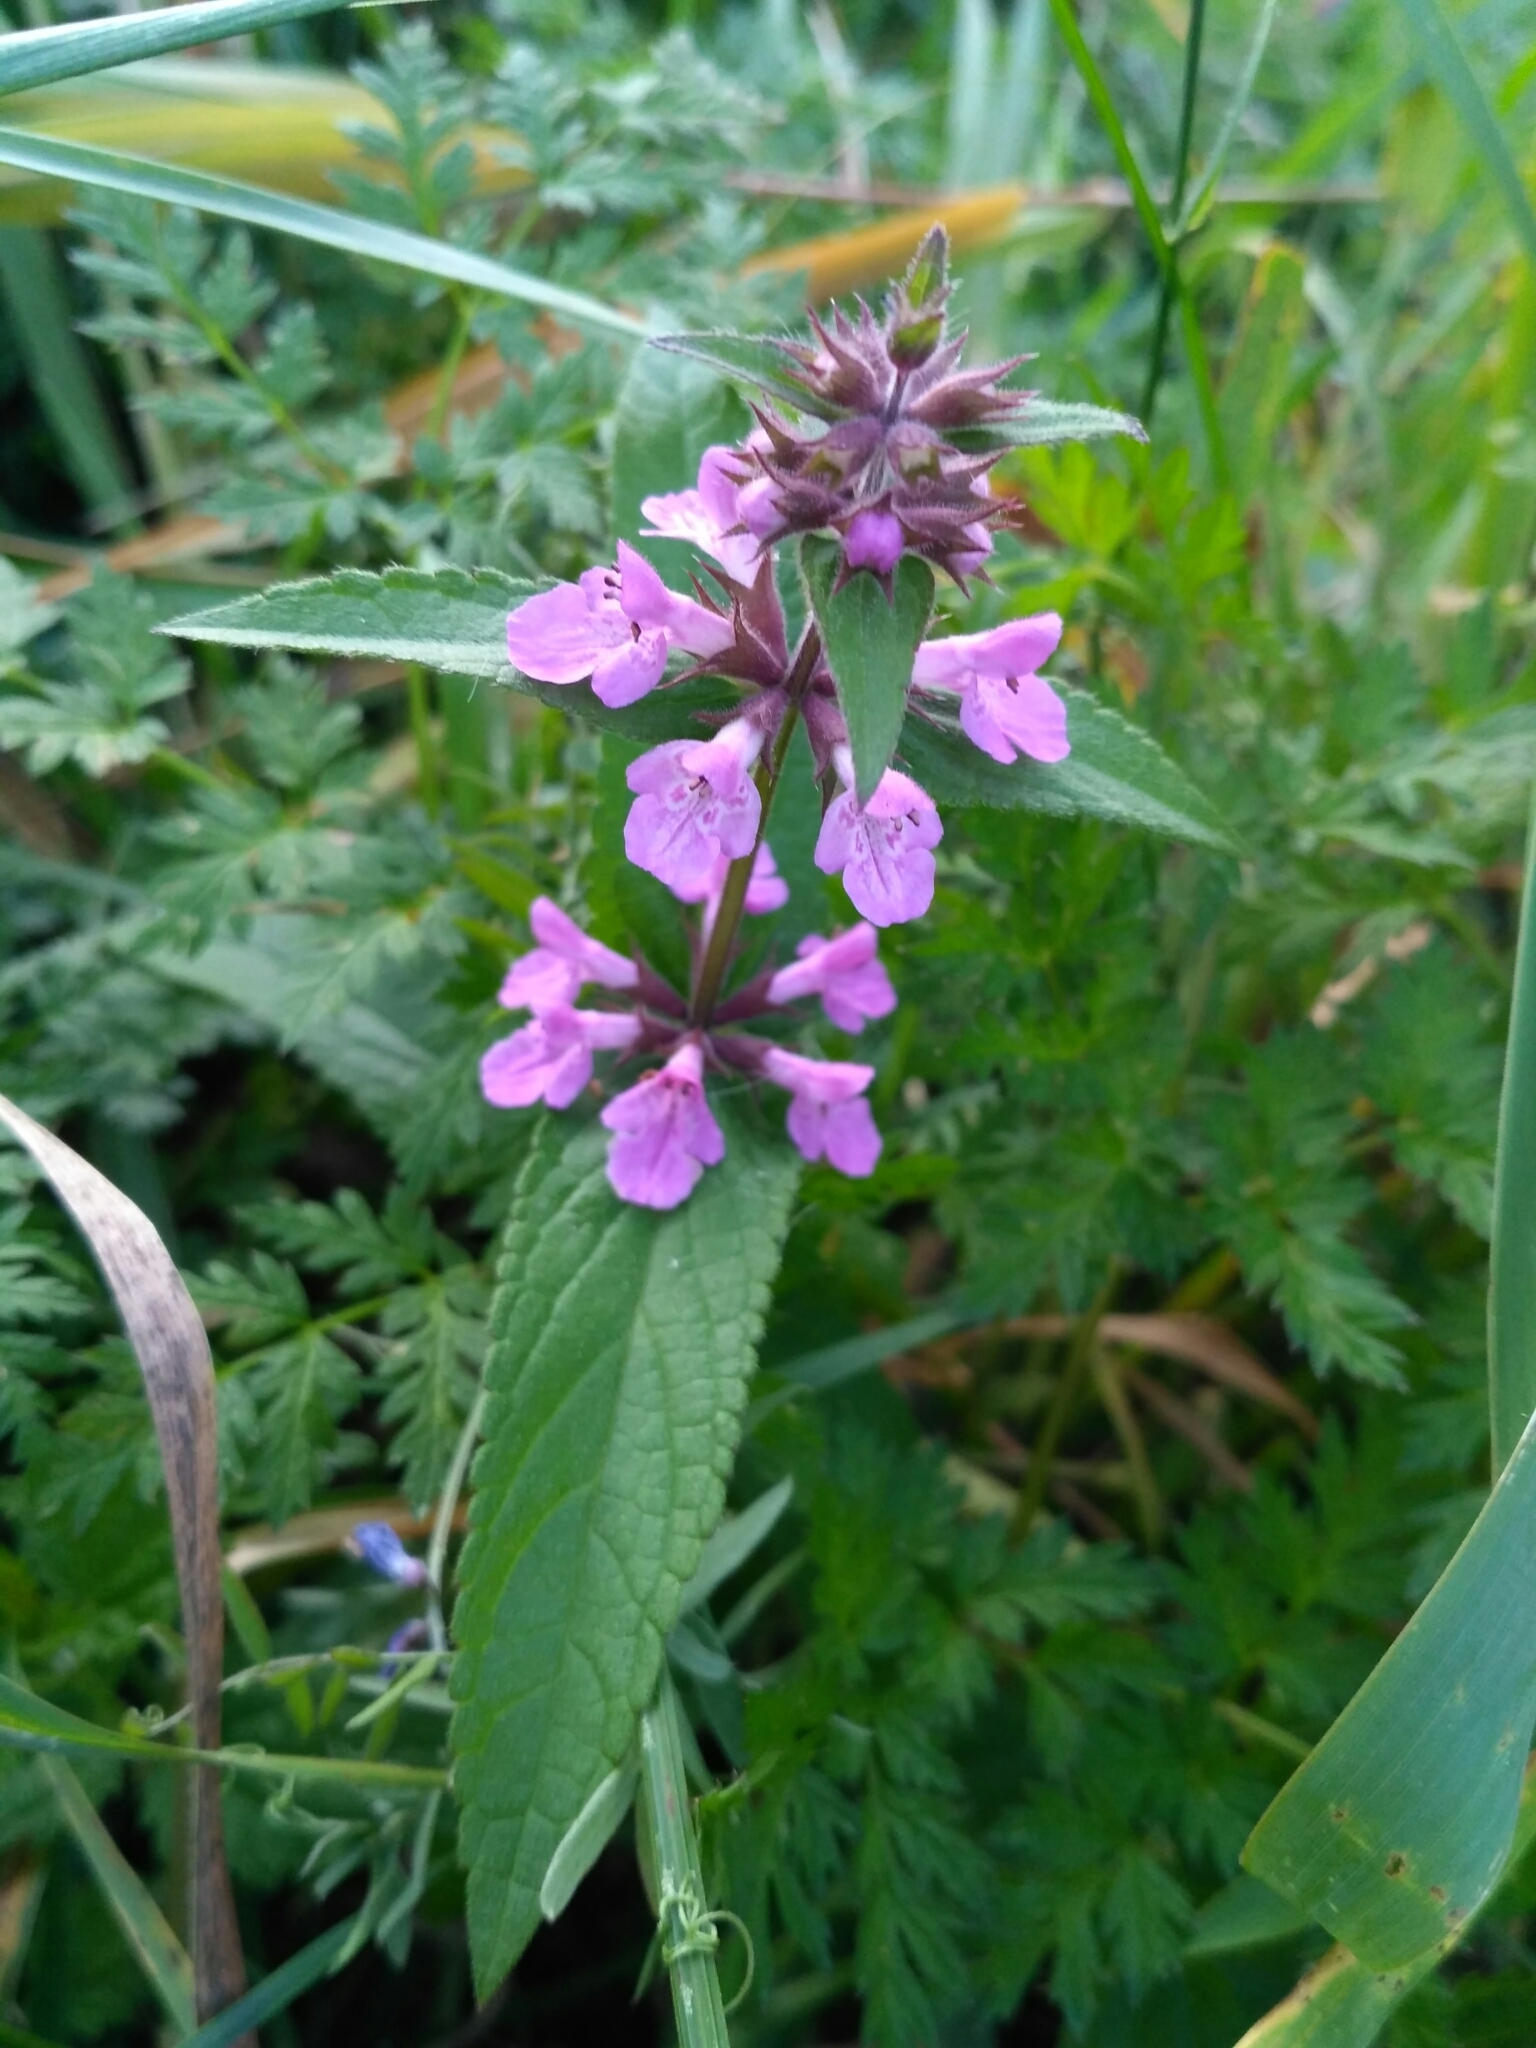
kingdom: Plantae
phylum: Tracheophyta
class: Magnoliopsida
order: Lamiales
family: Lamiaceae
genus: Stachys
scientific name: Stachys palustris
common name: Marsh woundwort
